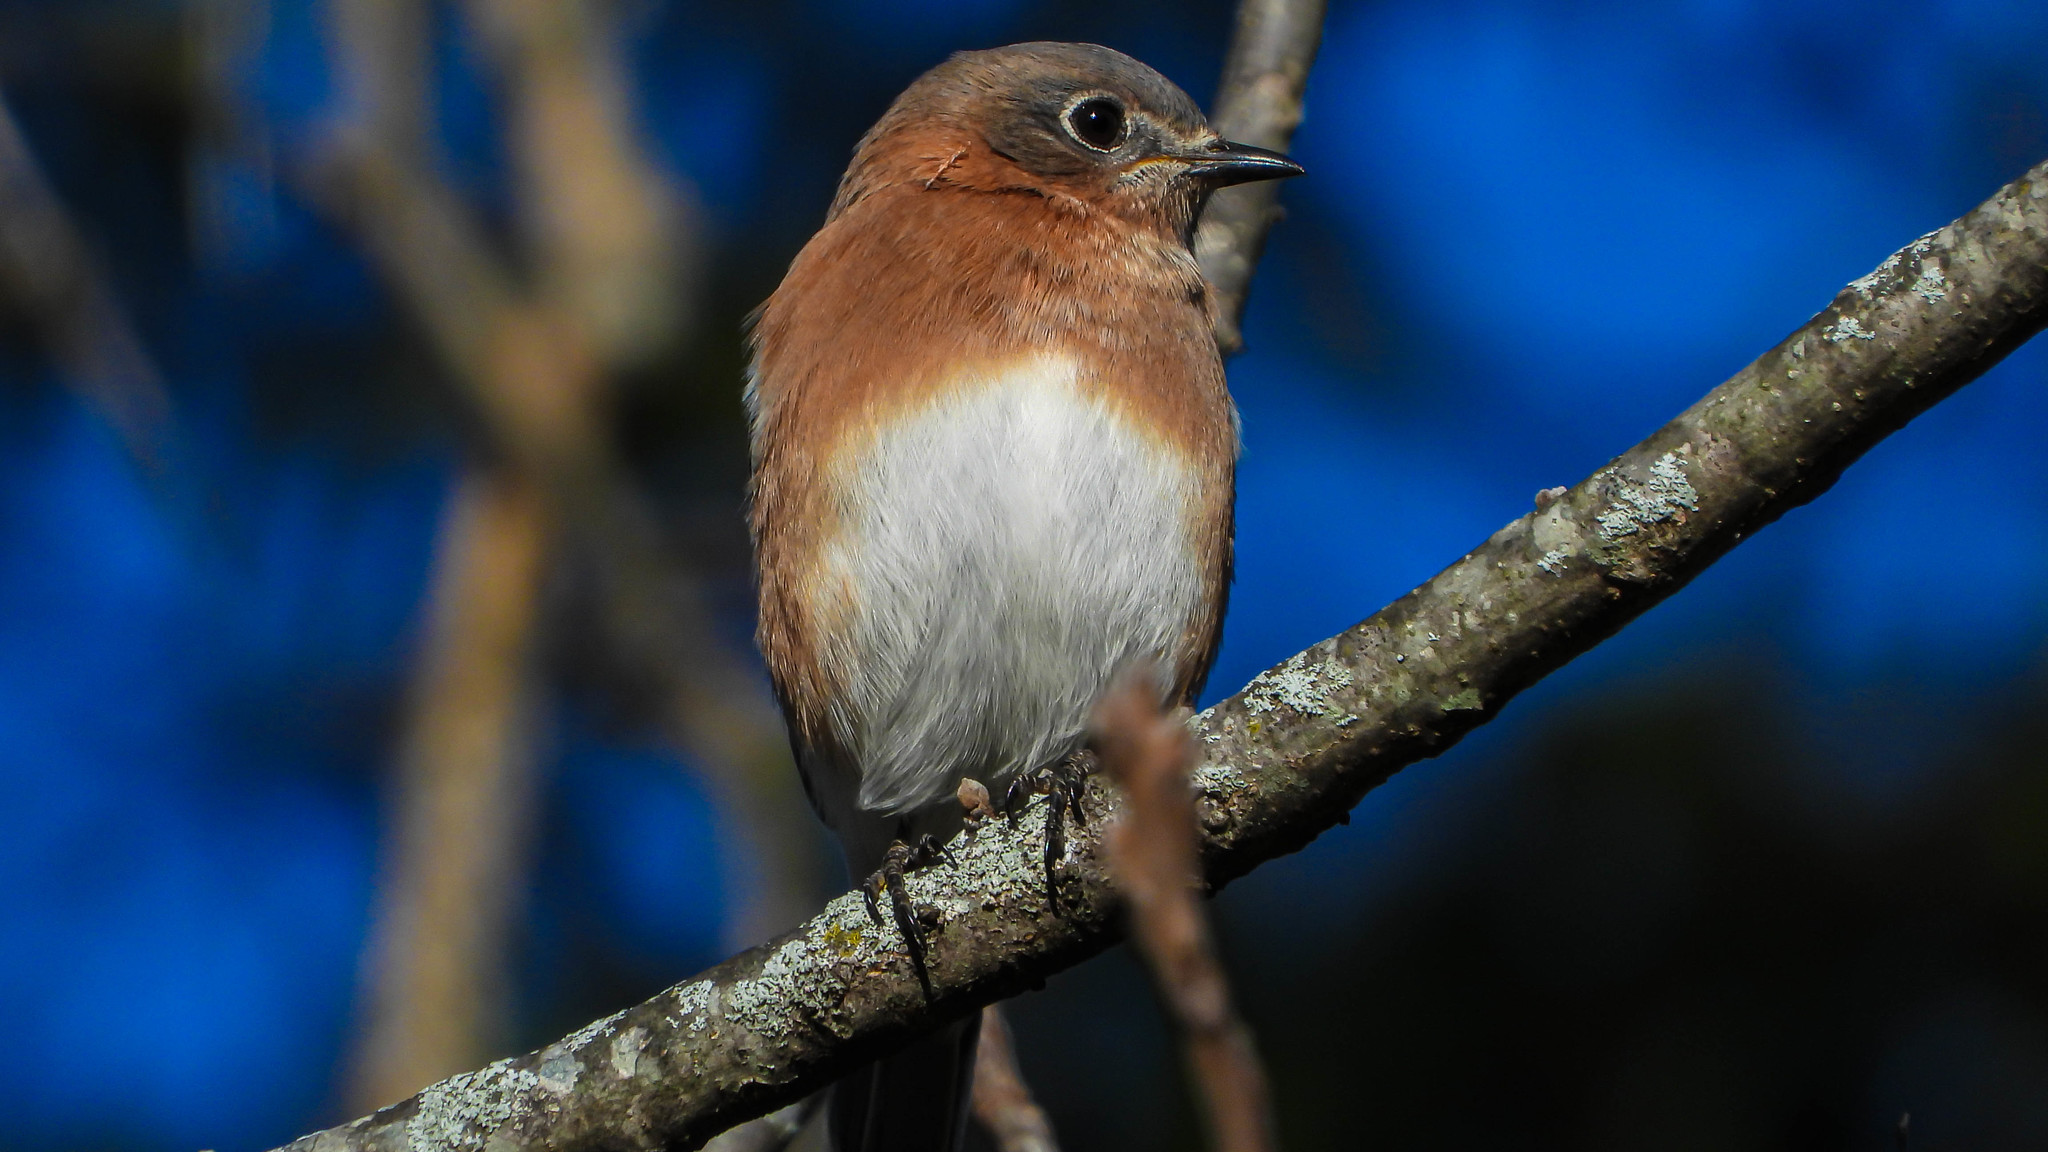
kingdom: Animalia
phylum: Chordata
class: Aves
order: Passeriformes
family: Turdidae
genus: Sialia
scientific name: Sialia sialis
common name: Eastern bluebird
